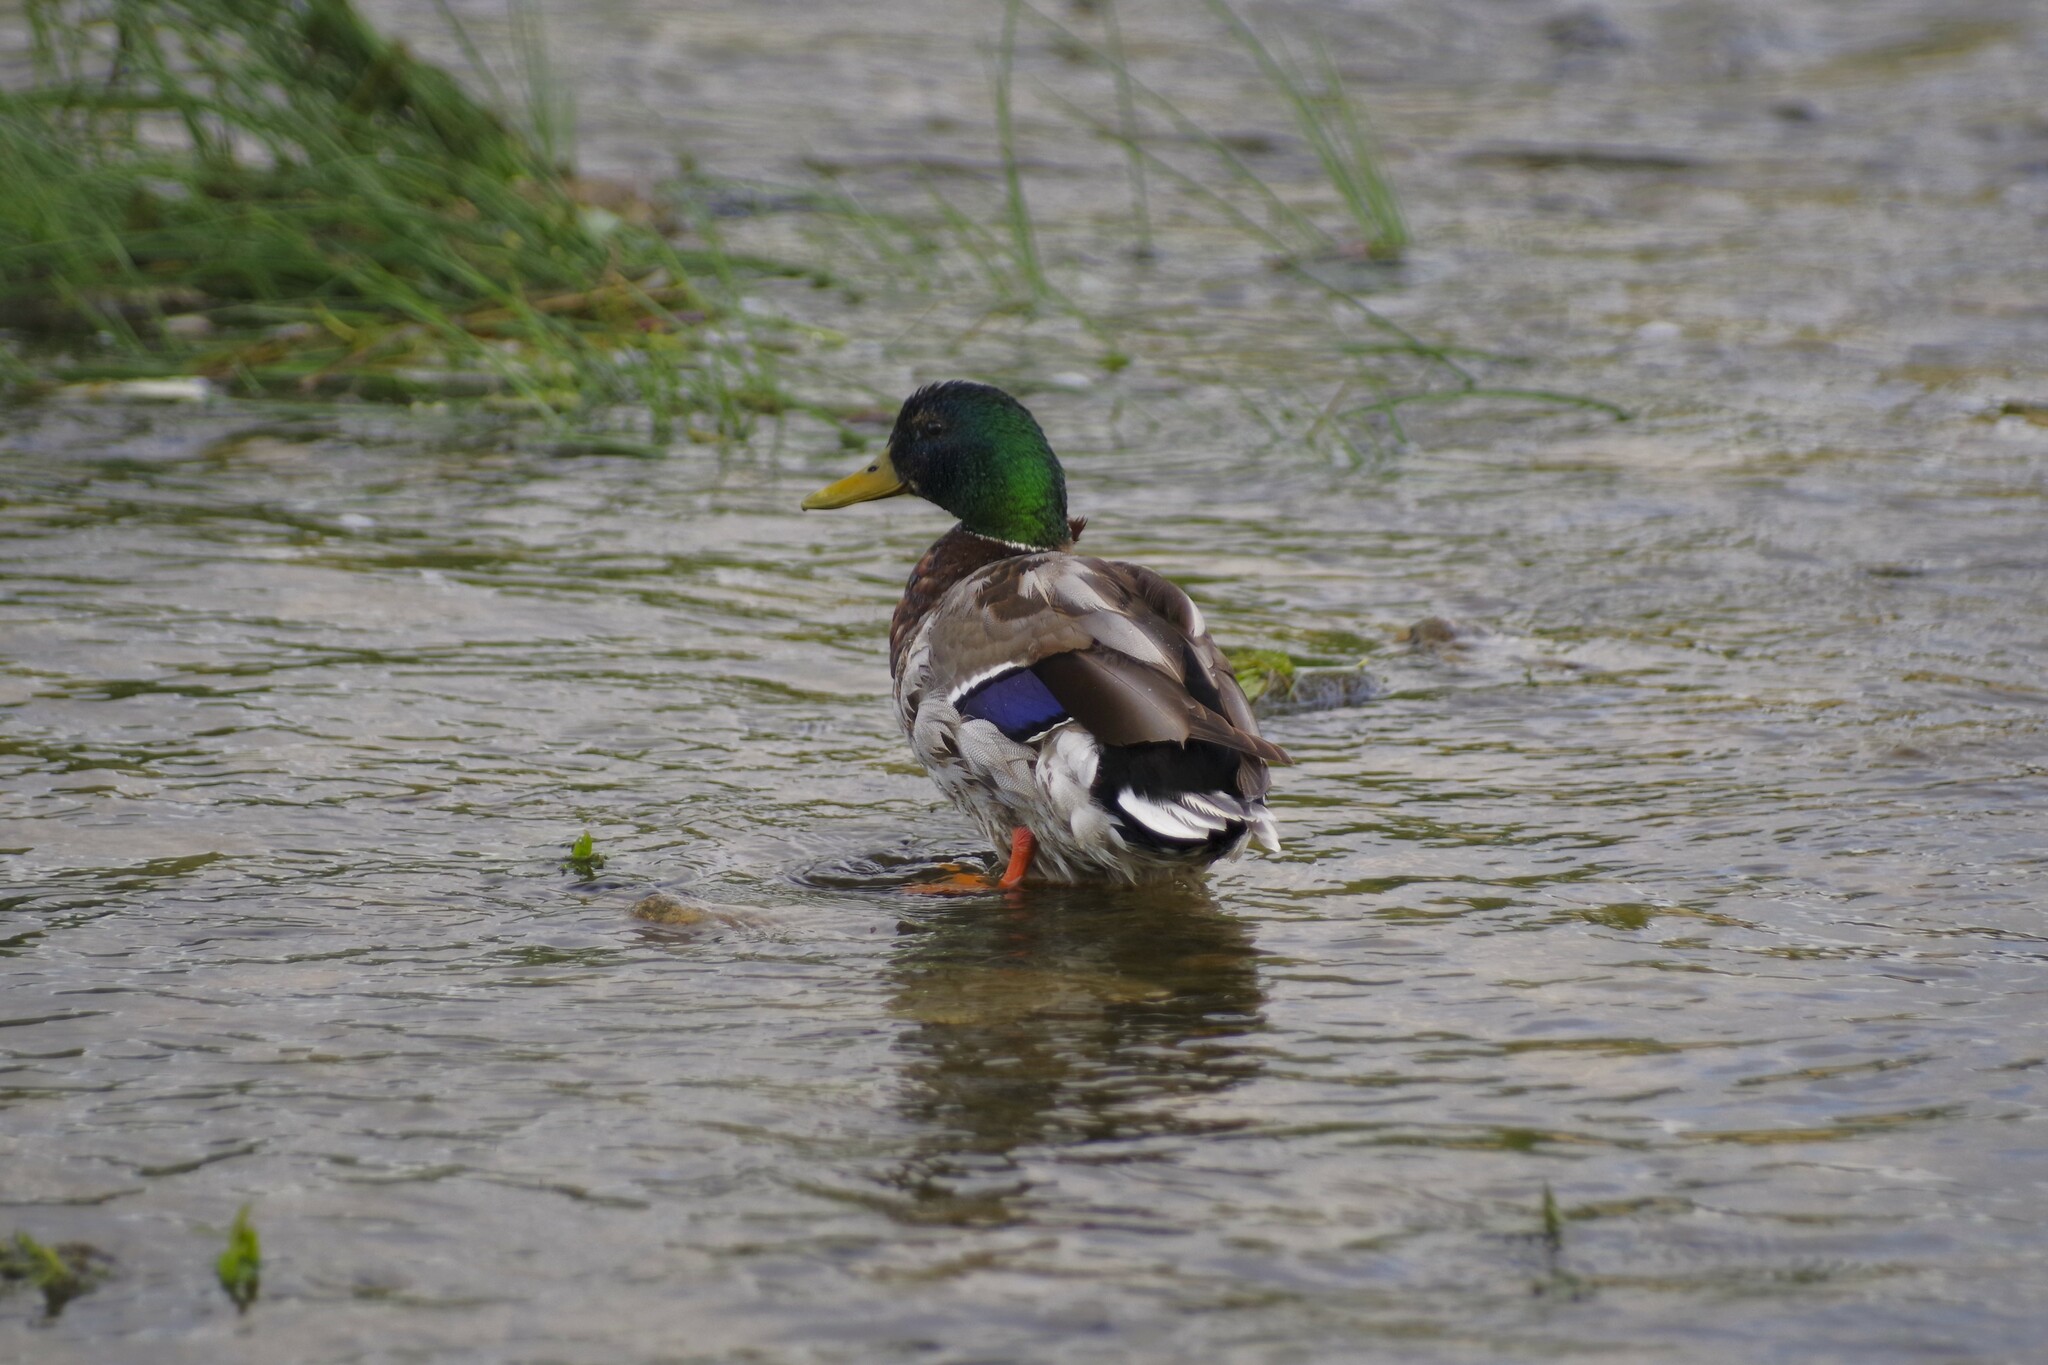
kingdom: Animalia
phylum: Chordata
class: Aves
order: Anseriformes
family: Anatidae
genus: Anas
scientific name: Anas platyrhynchos
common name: Mallard
